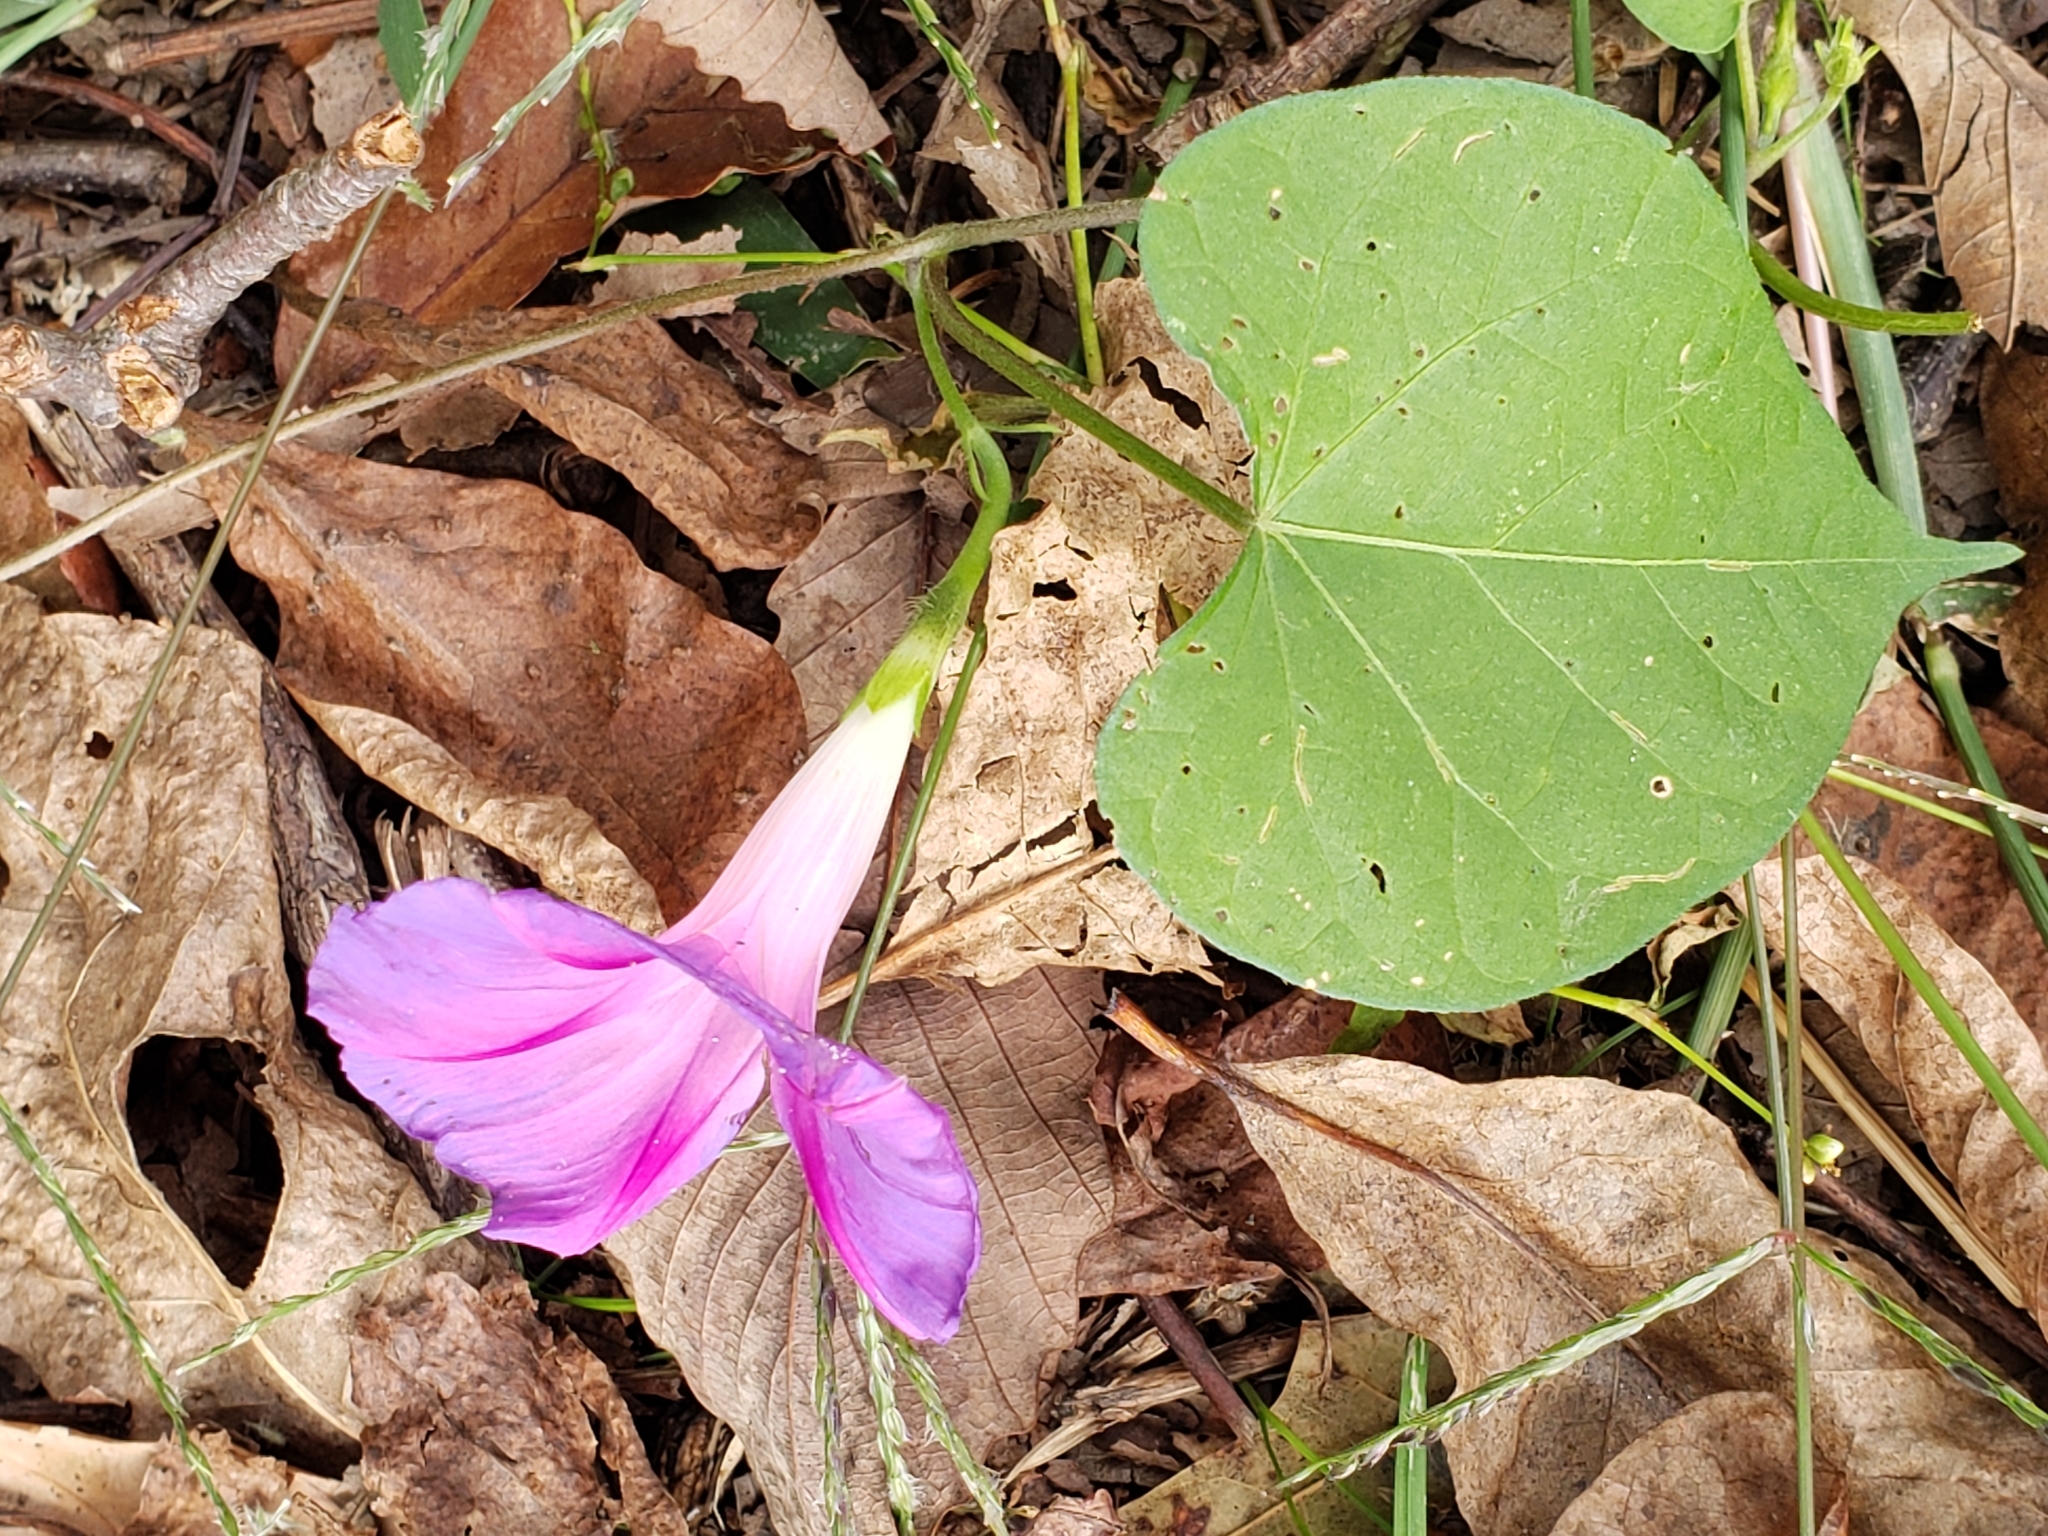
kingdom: Plantae
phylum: Tracheophyta
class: Magnoliopsida
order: Solanales
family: Convolvulaceae
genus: Ipomoea
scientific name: Ipomoea purpurea
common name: Common morning-glory
